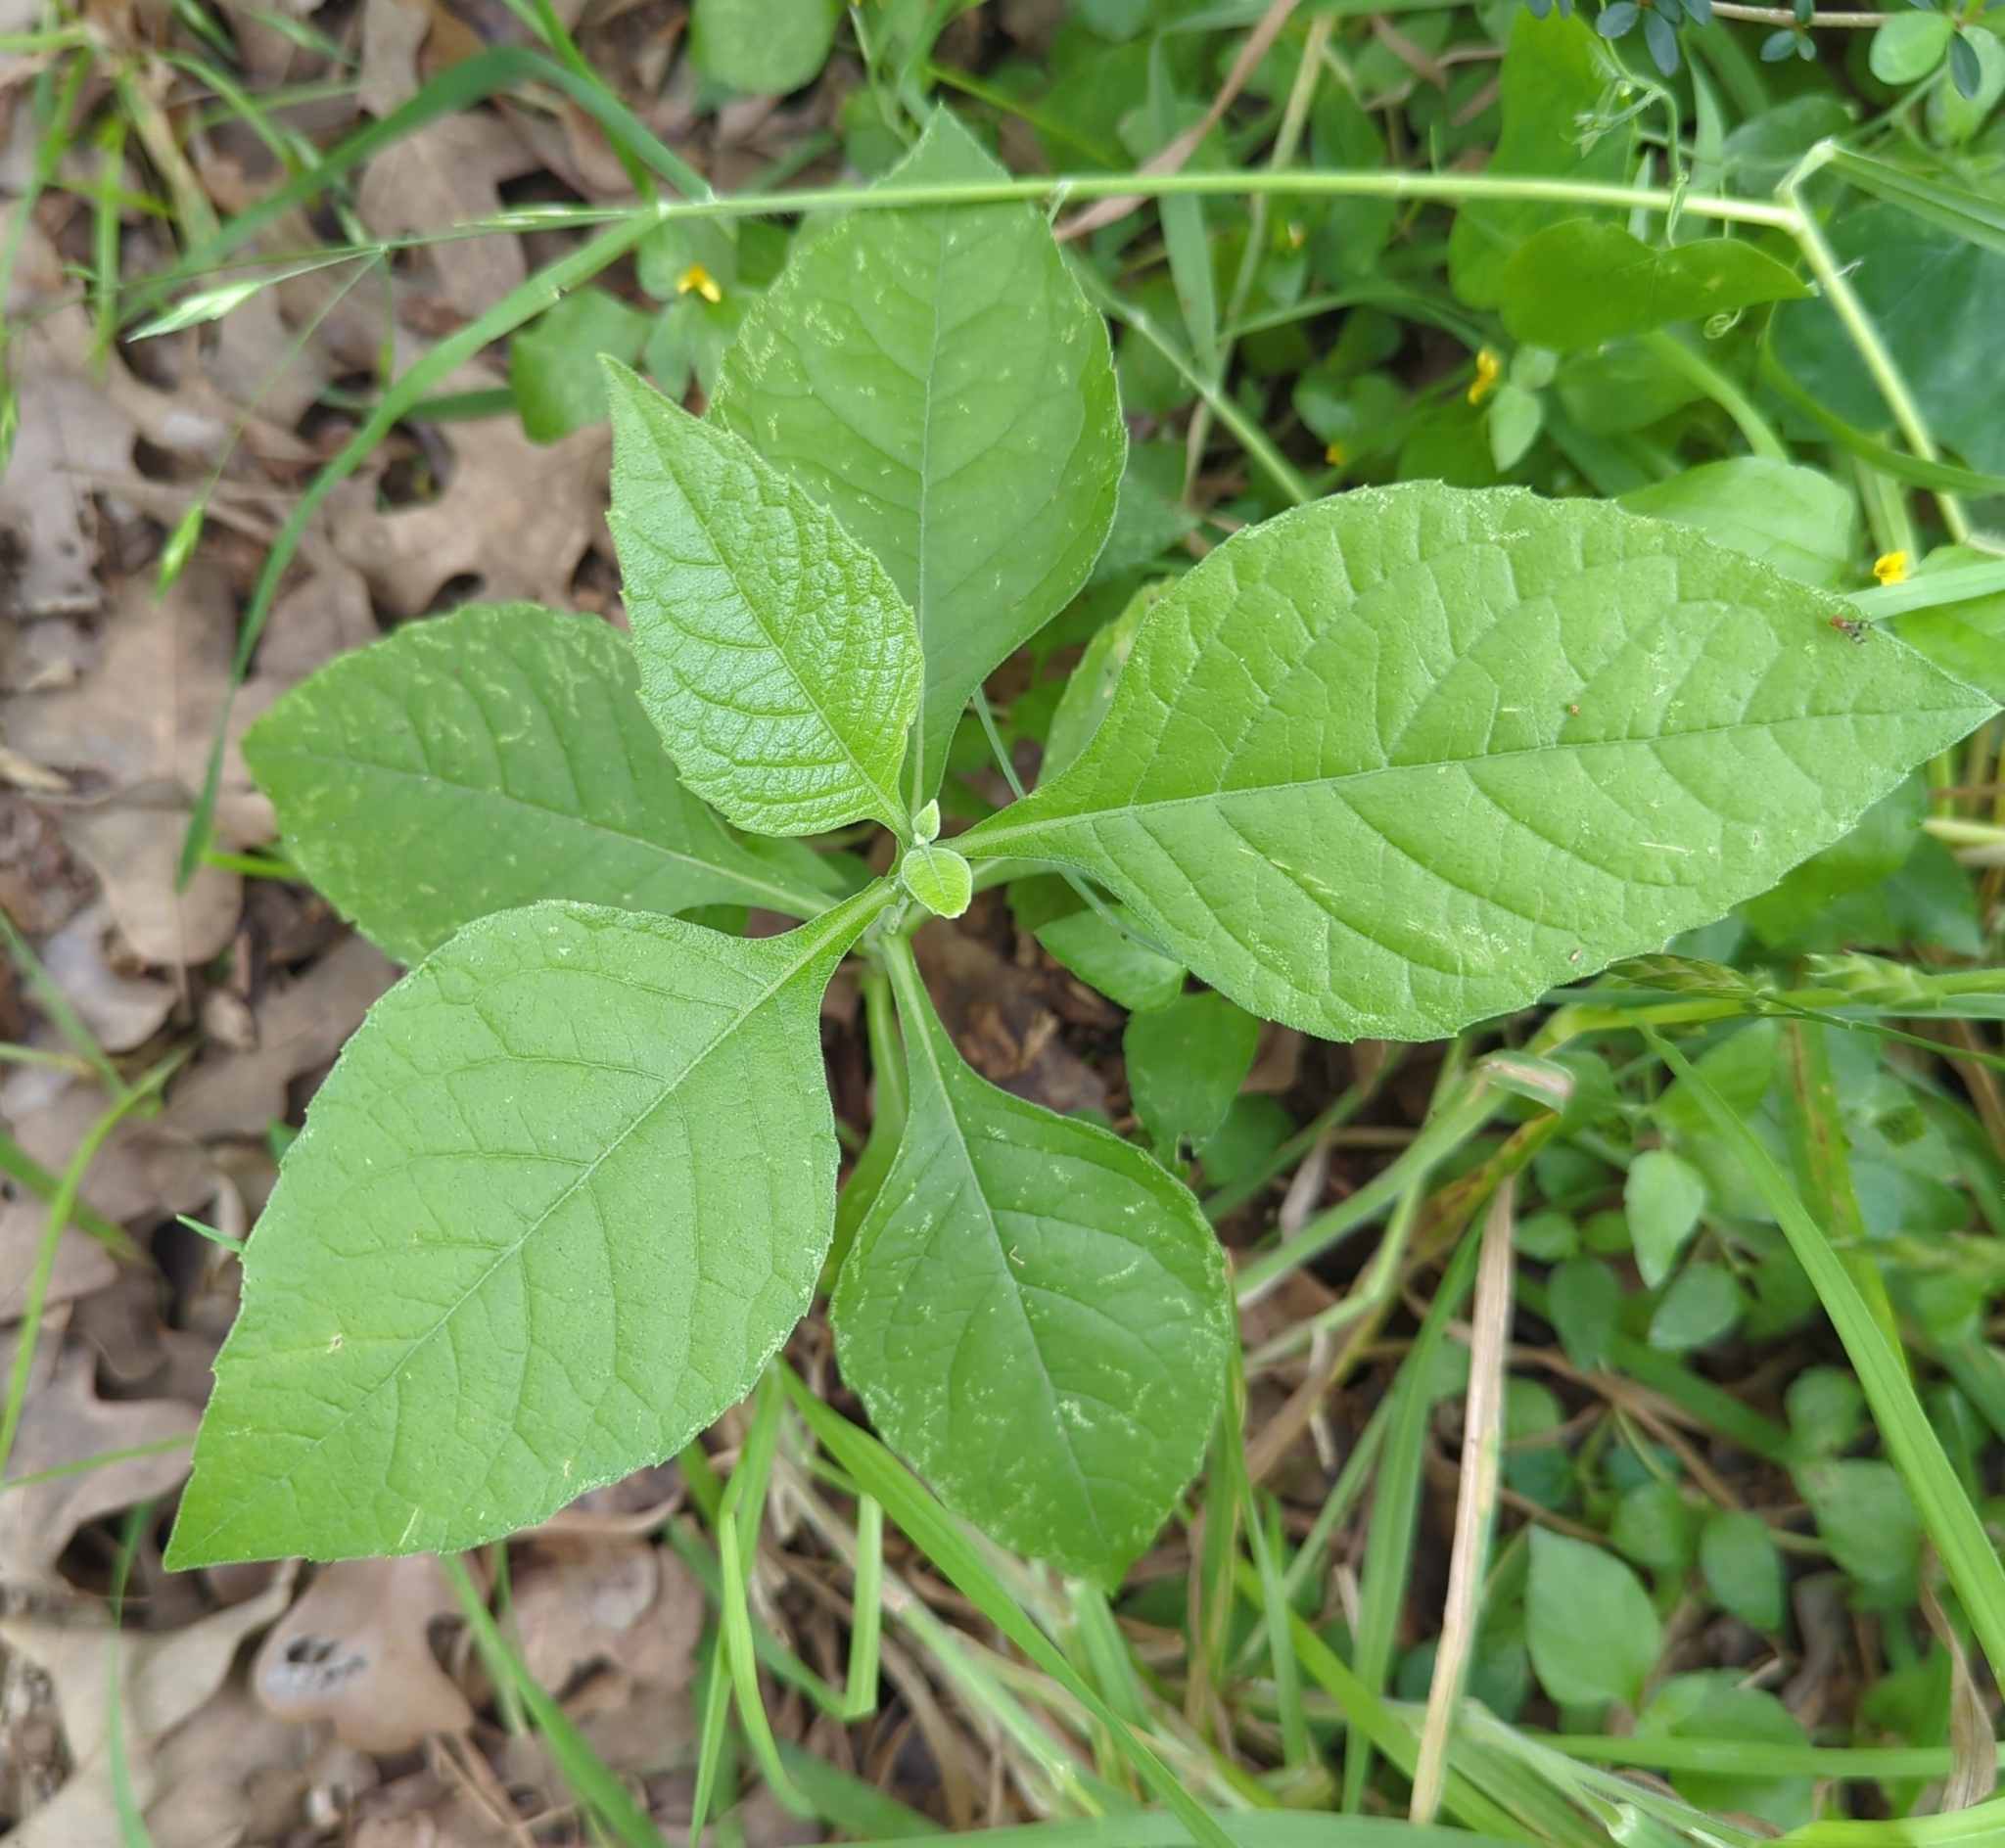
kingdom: Plantae
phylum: Tracheophyta
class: Magnoliopsida
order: Asterales
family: Asteraceae
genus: Verbesina
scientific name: Verbesina virginica
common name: Frostweed
